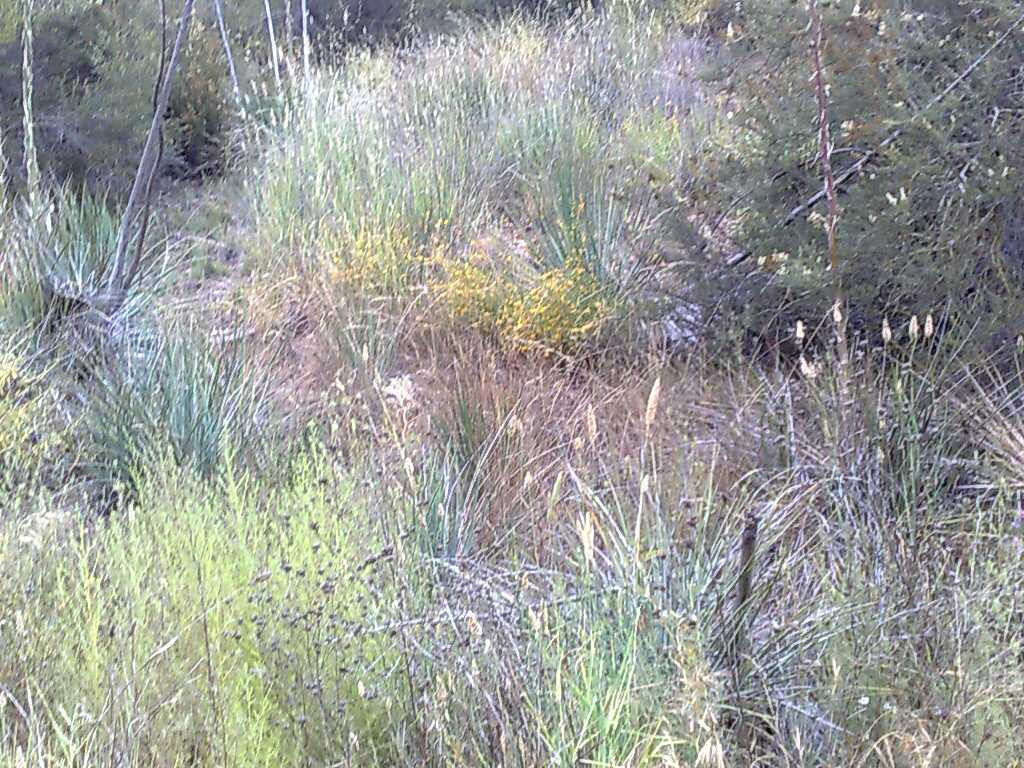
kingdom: Plantae
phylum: Tracheophyta
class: Magnoliopsida
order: Rosales
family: Rosaceae
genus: Adenostoma
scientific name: Adenostoma fasciculatum
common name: Chamise
